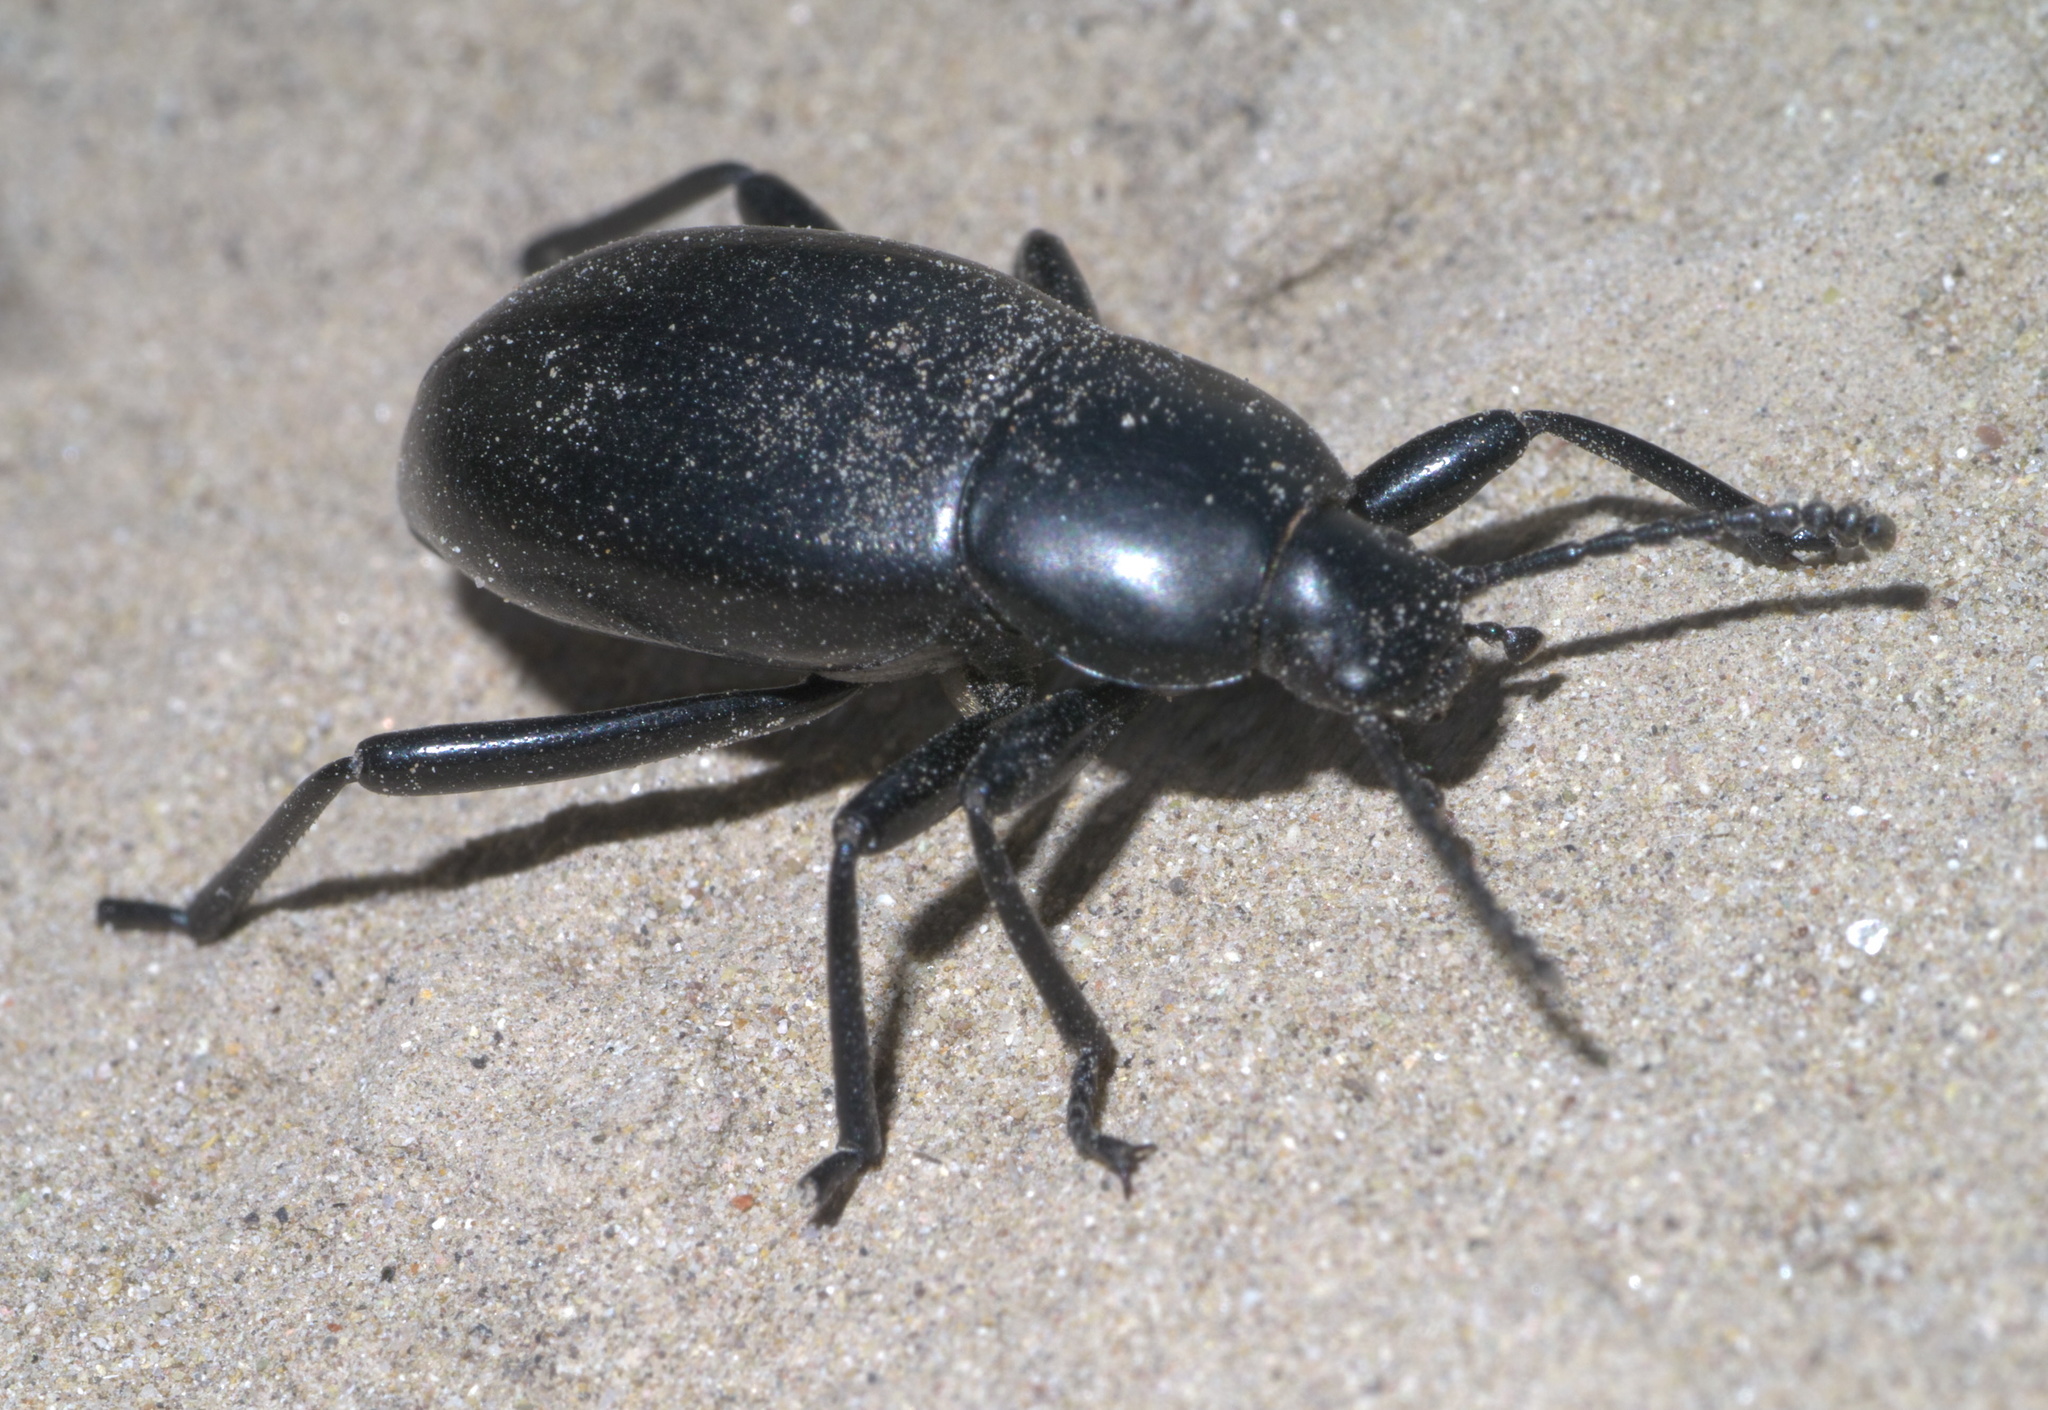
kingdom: Animalia
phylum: Arthropoda
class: Insecta
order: Coleoptera
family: Tenebrionidae
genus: Eleodes
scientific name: Eleodes debilis
